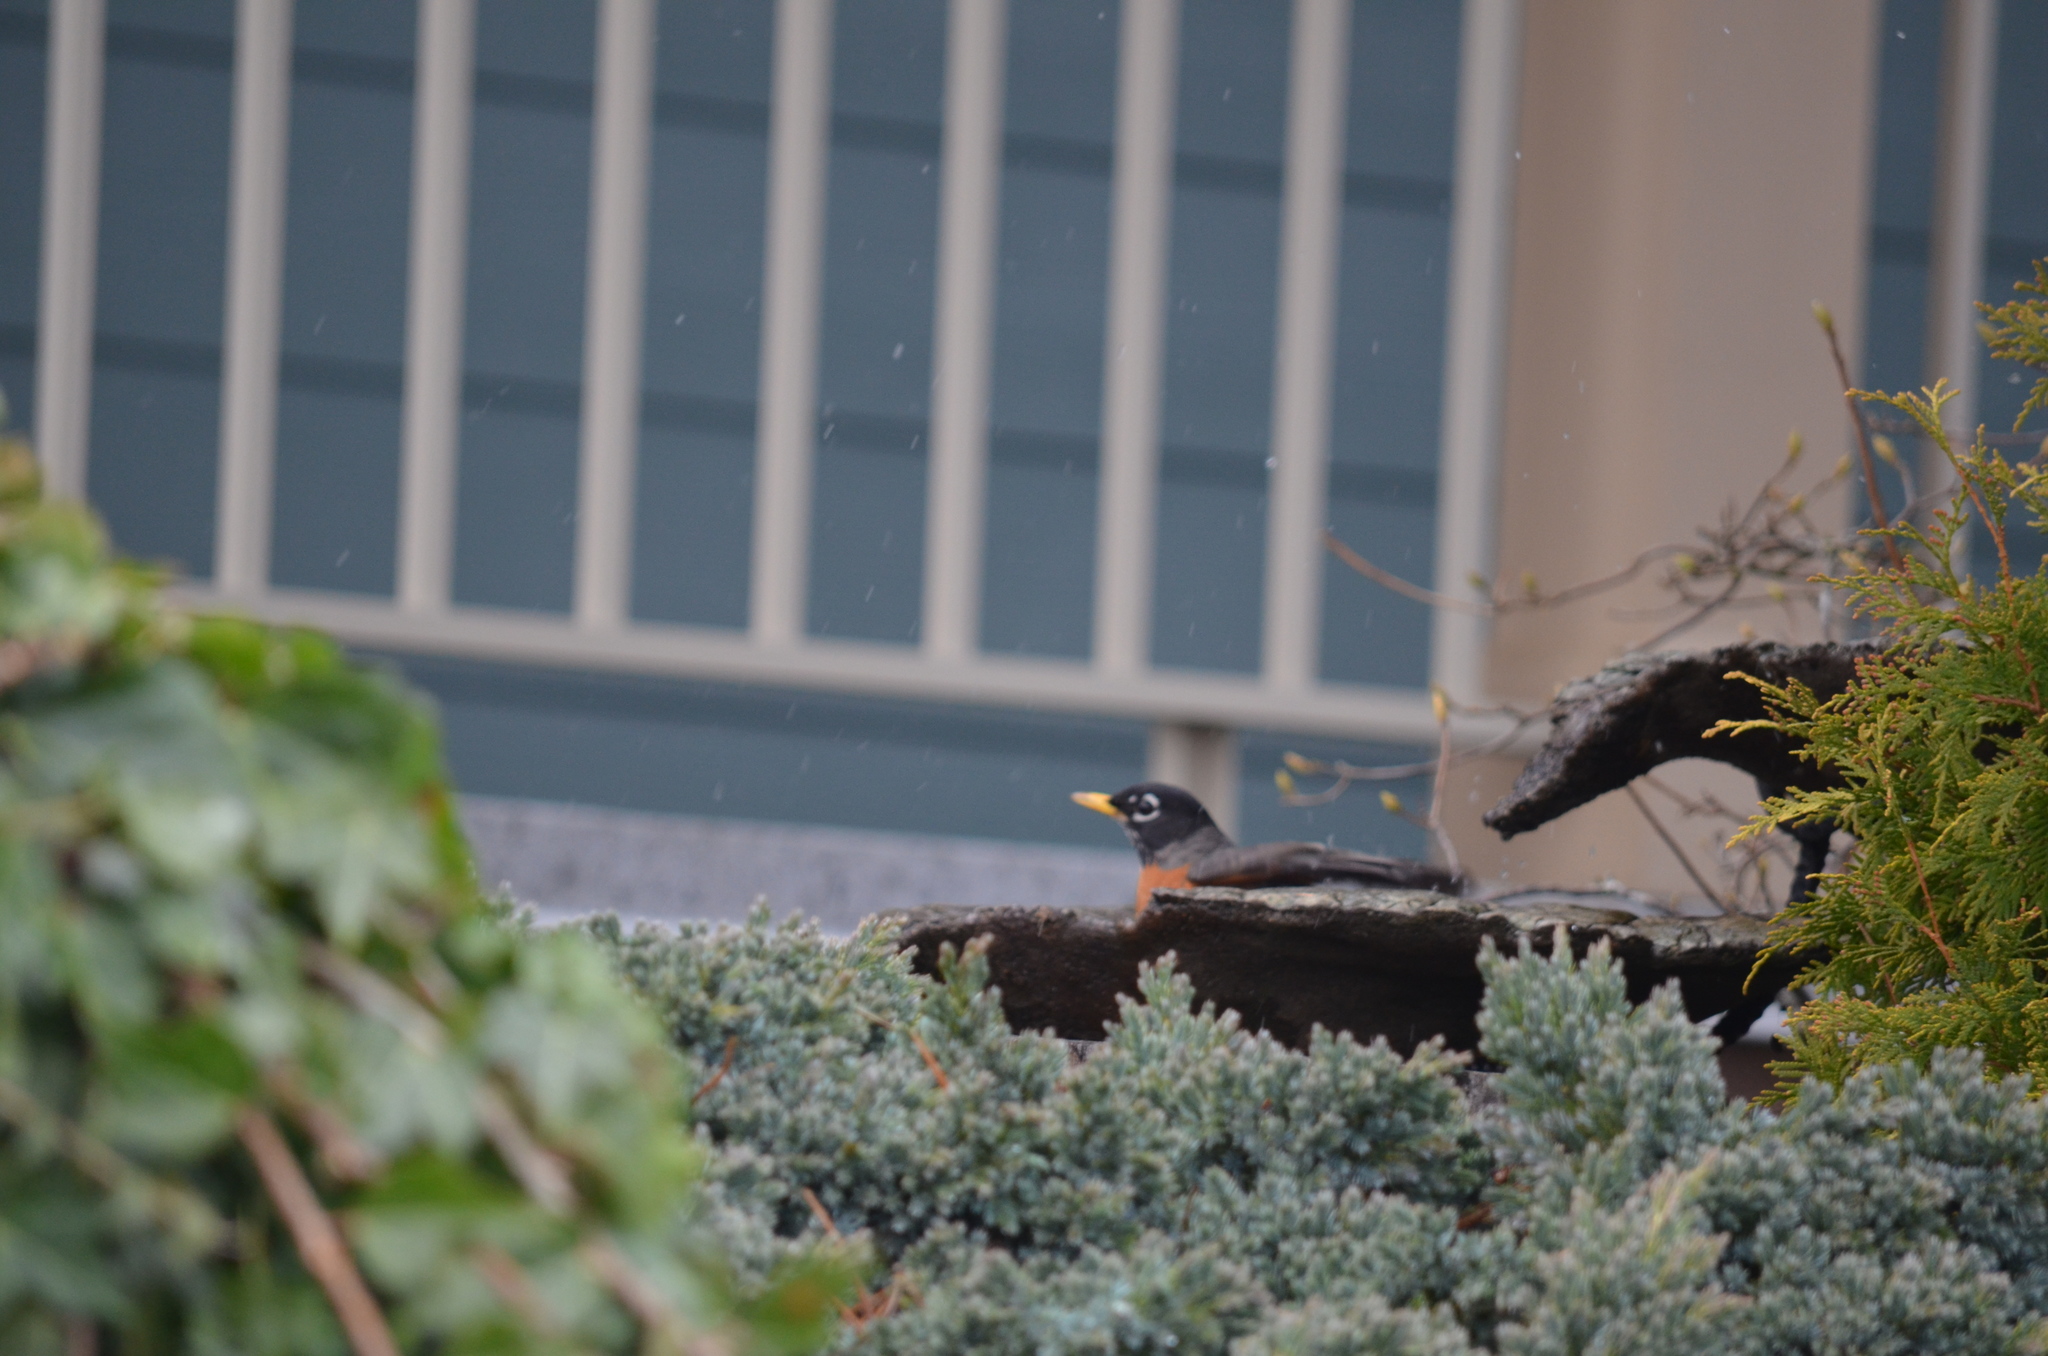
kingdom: Animalia
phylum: Chordata
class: Aves
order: Passeriformes
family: Turdidae
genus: Turdus
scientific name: Turdus migratorius
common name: American robin
